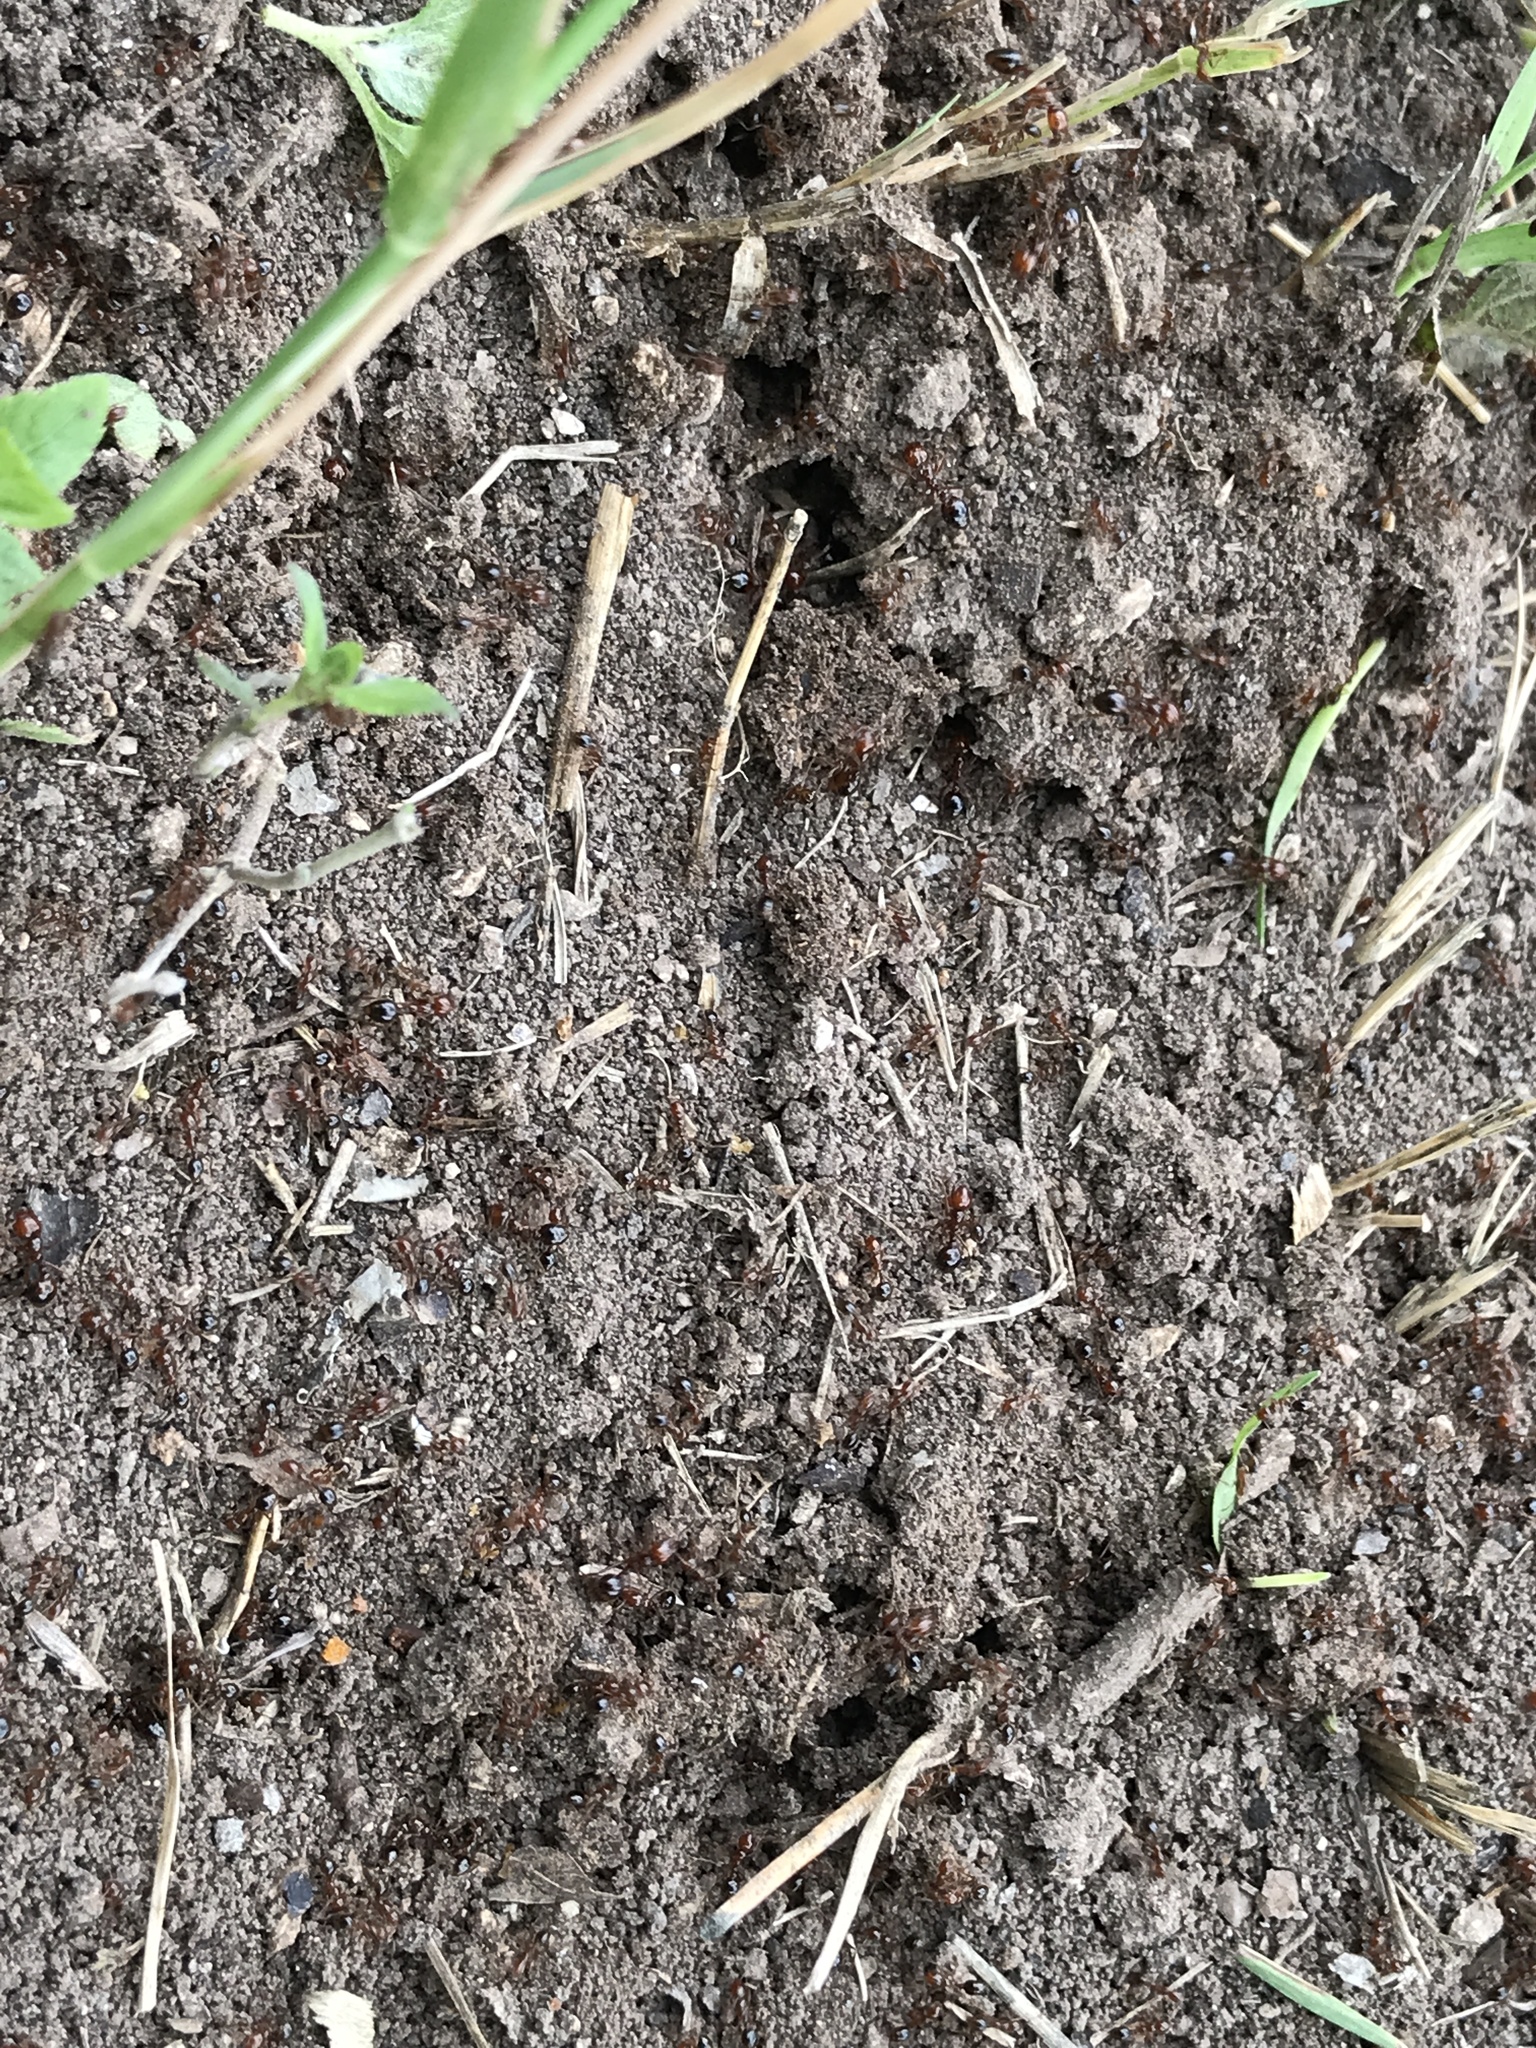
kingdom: Animalia
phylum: Arthropoda
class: Insecta
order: Hymenoptera
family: Formicidae
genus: Solenopsis
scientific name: Solenopsis invicta
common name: Red imported fire ant
